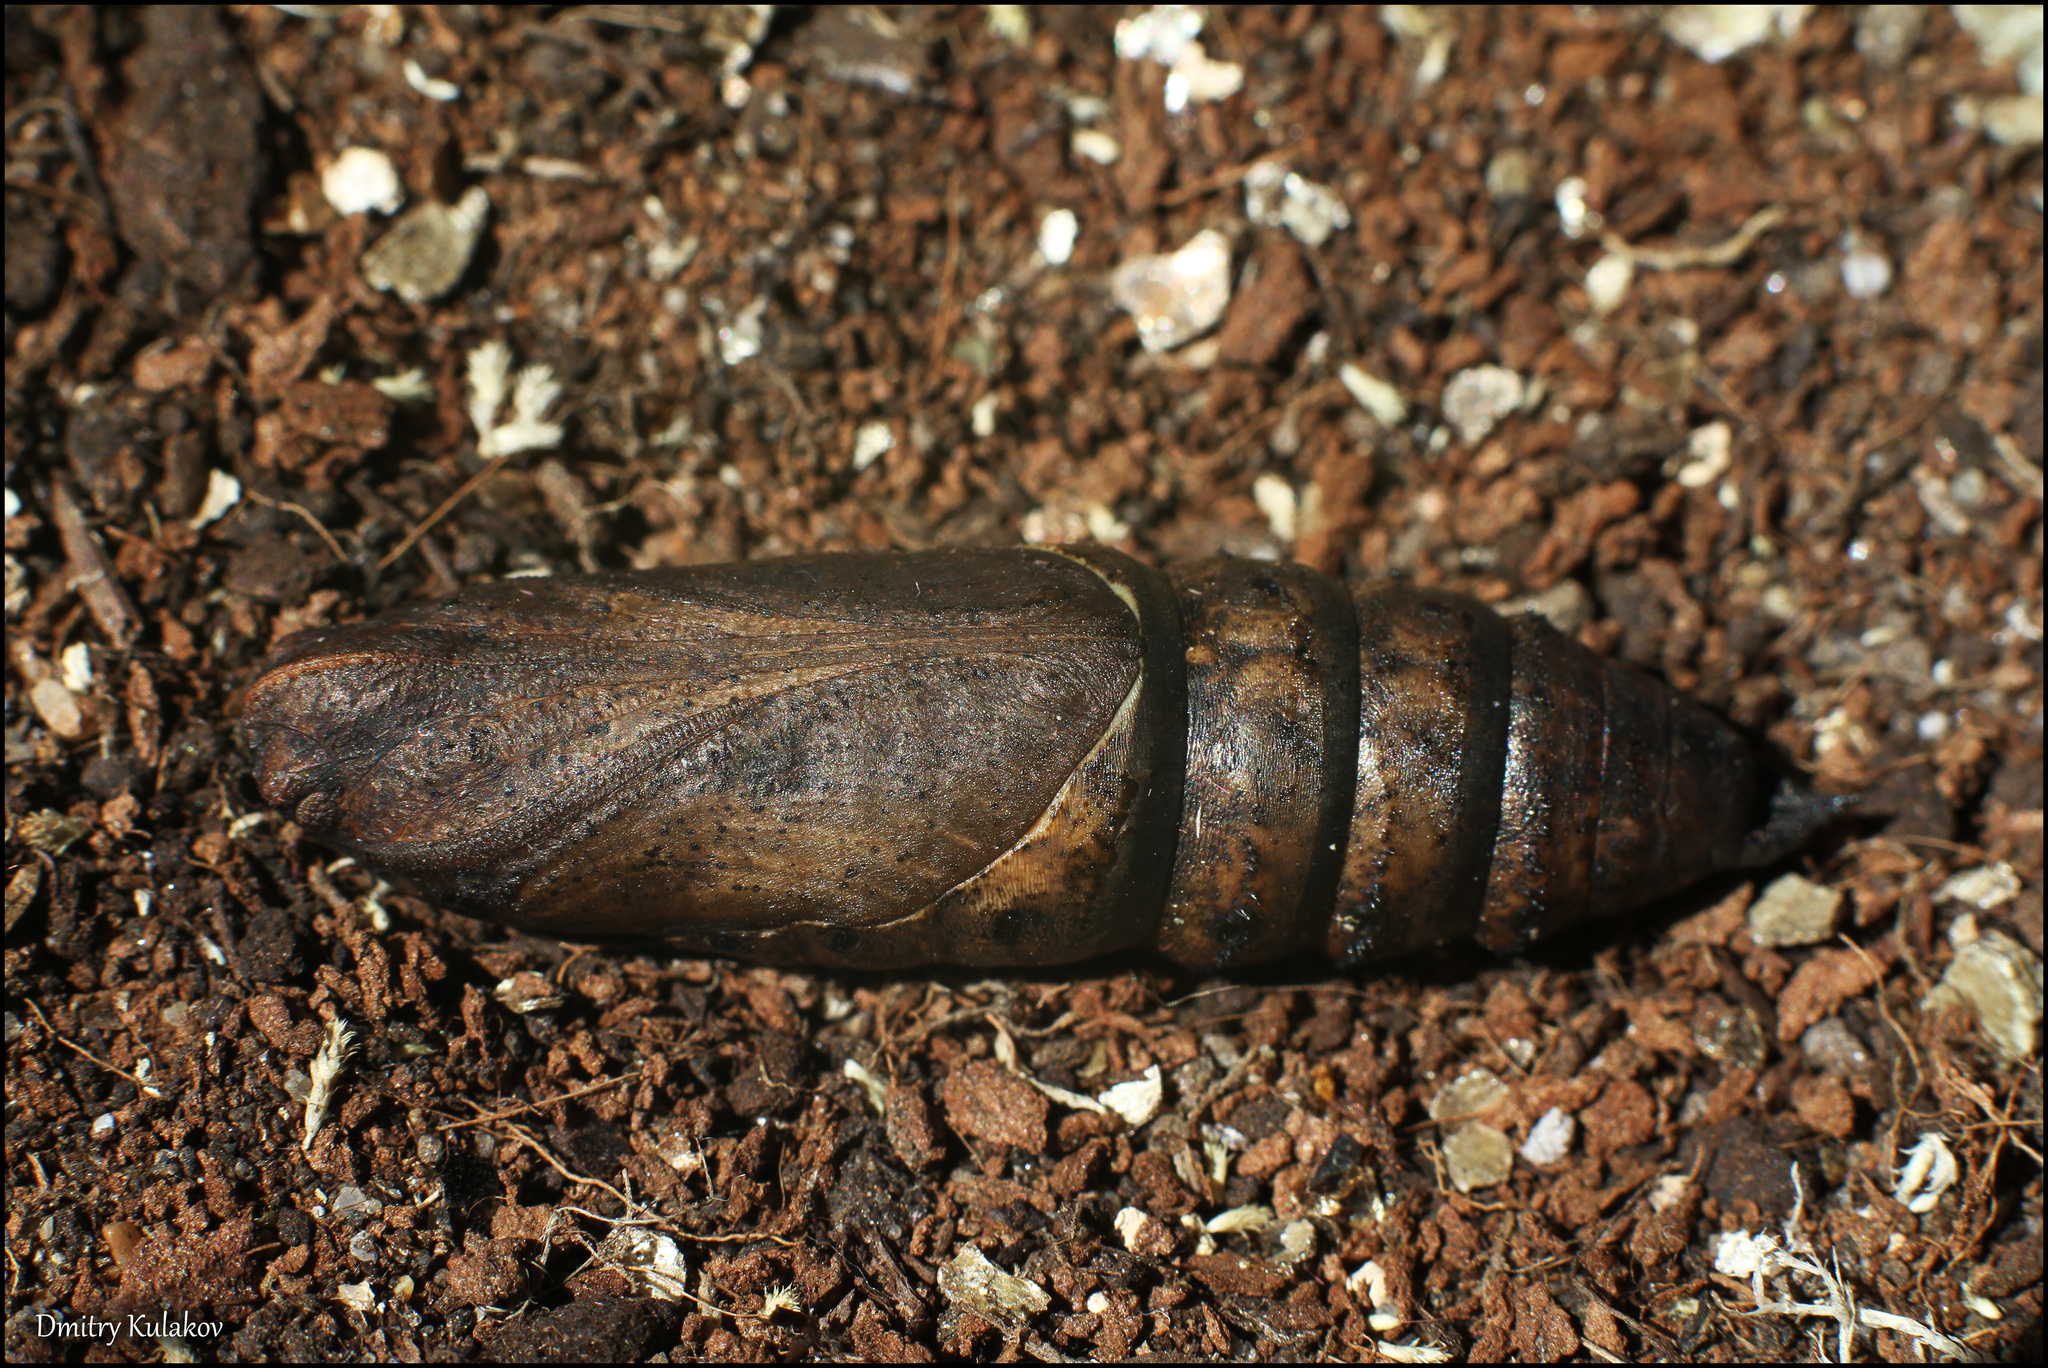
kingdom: Animalia
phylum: Arthropoda
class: Insecta
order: Lepidoptera
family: Sphingidae
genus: Deilephila
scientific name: Deilephila elpenor
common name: Elephant hawk-moth
